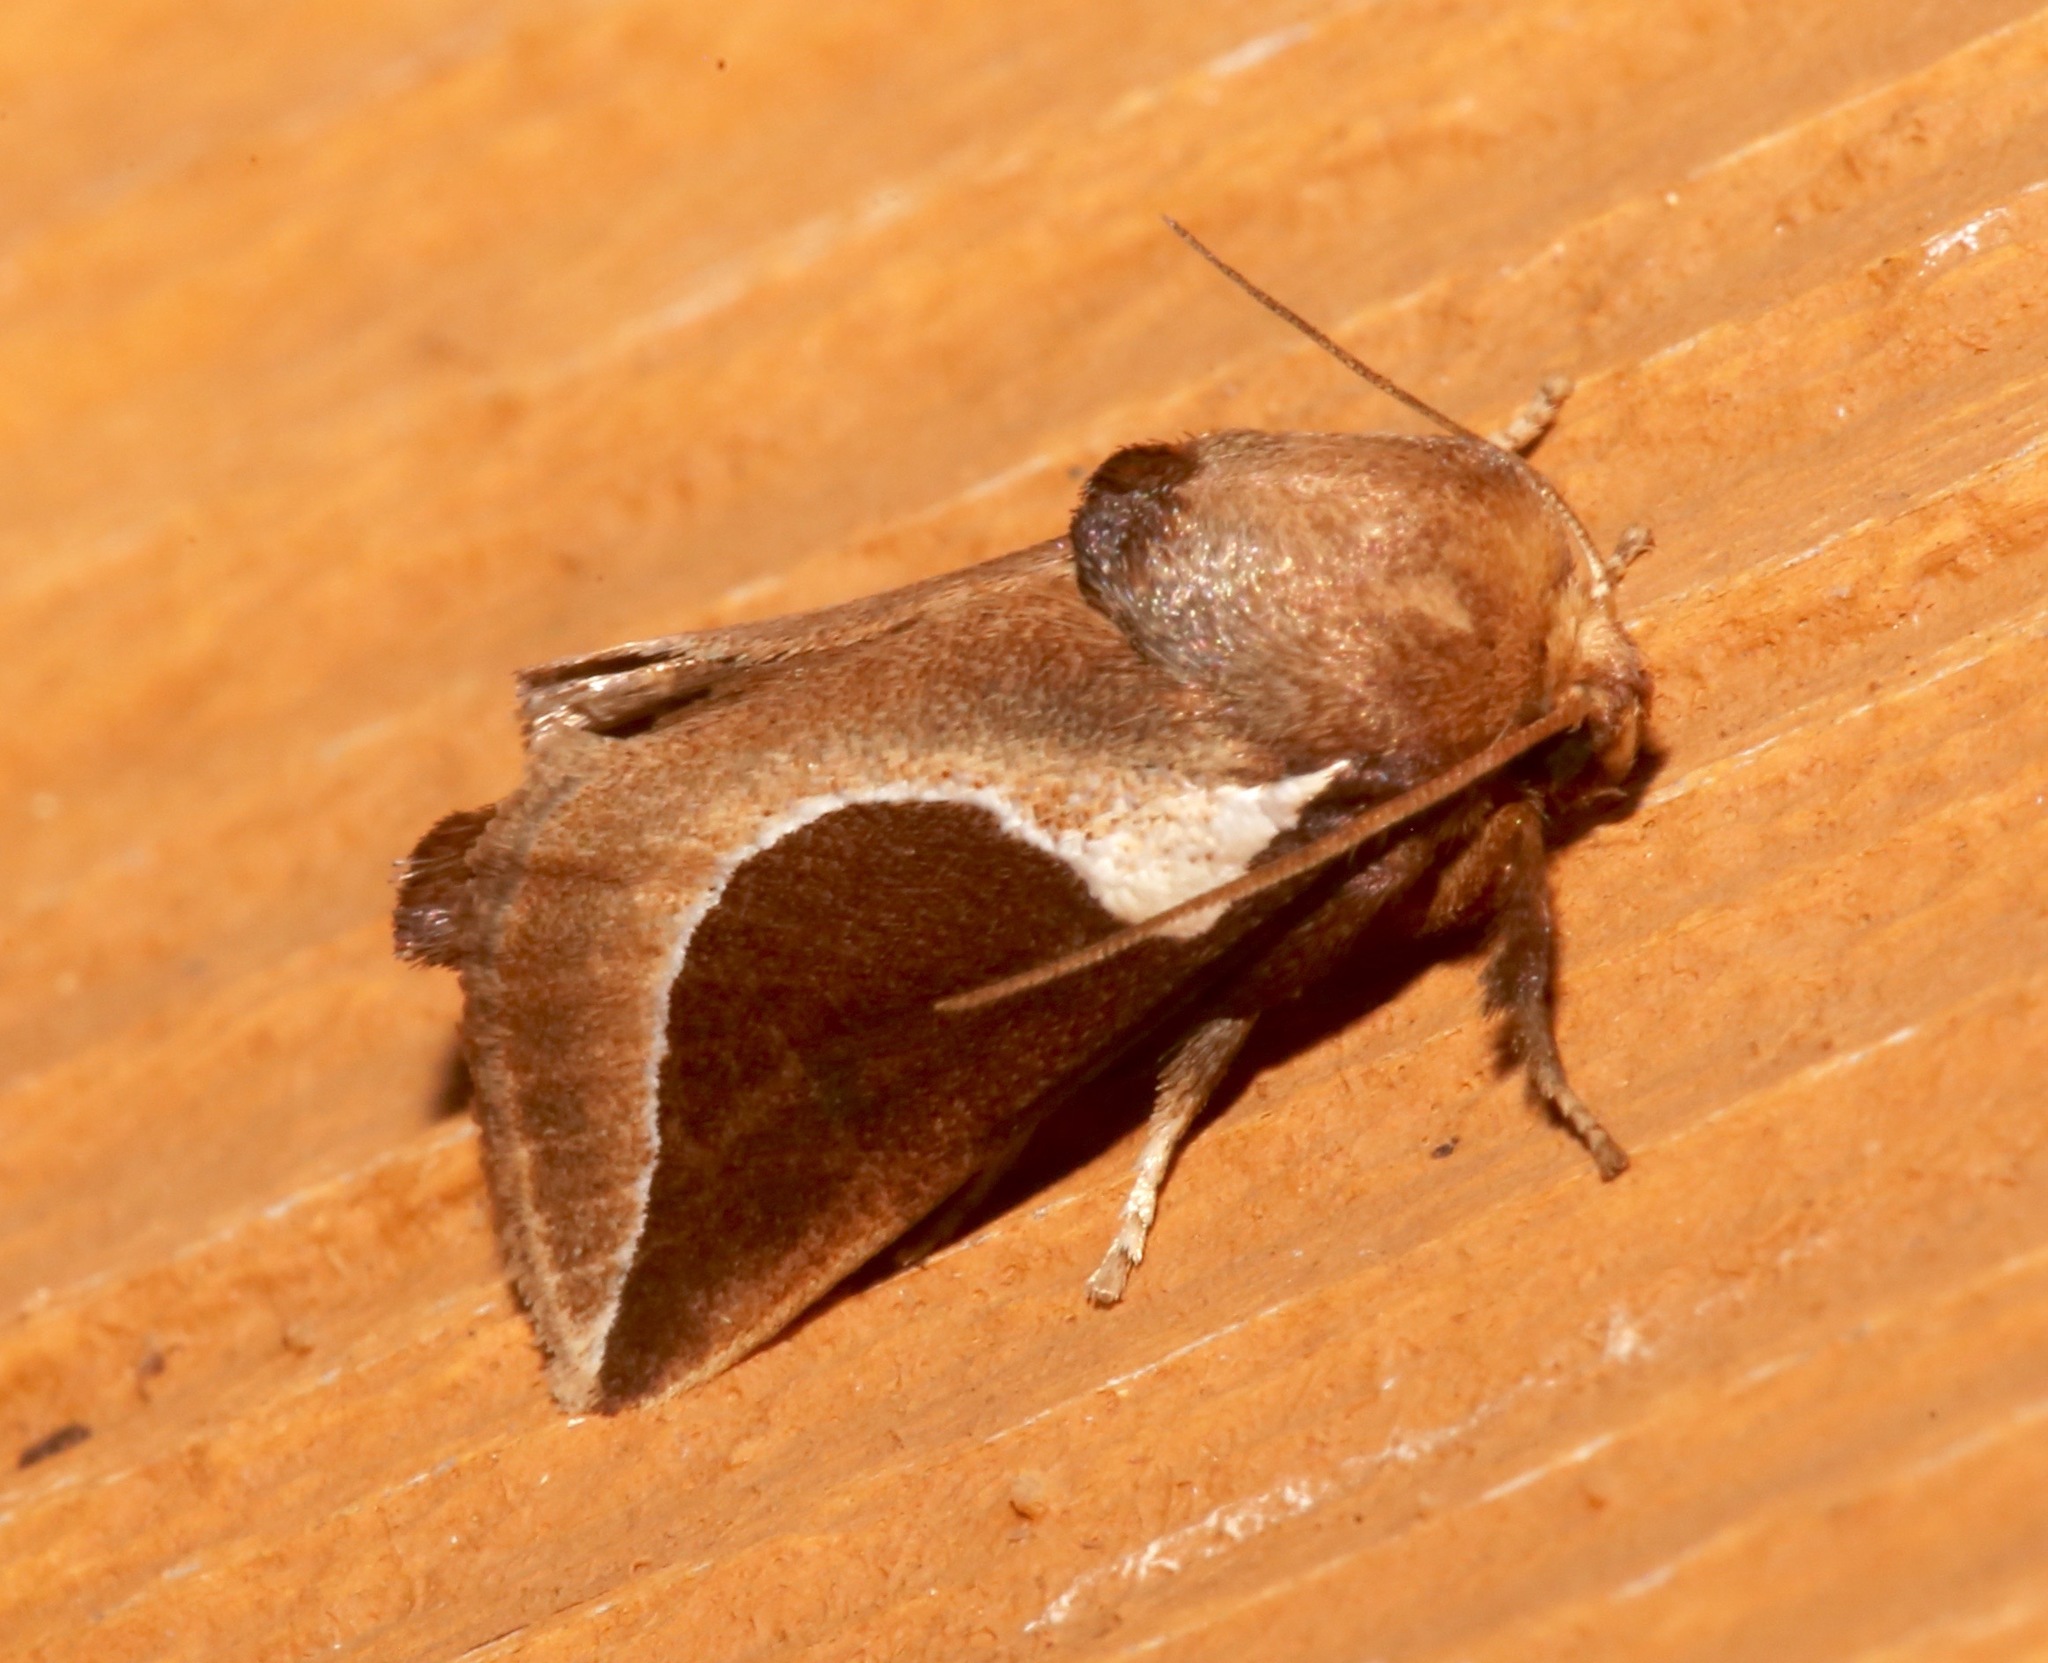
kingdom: Animalia
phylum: Arthropoda
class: Insecta
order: Lepidoptera
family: Limacodidae
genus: Prolimacodes
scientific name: Prolimacodes badia
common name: Skiff moth
